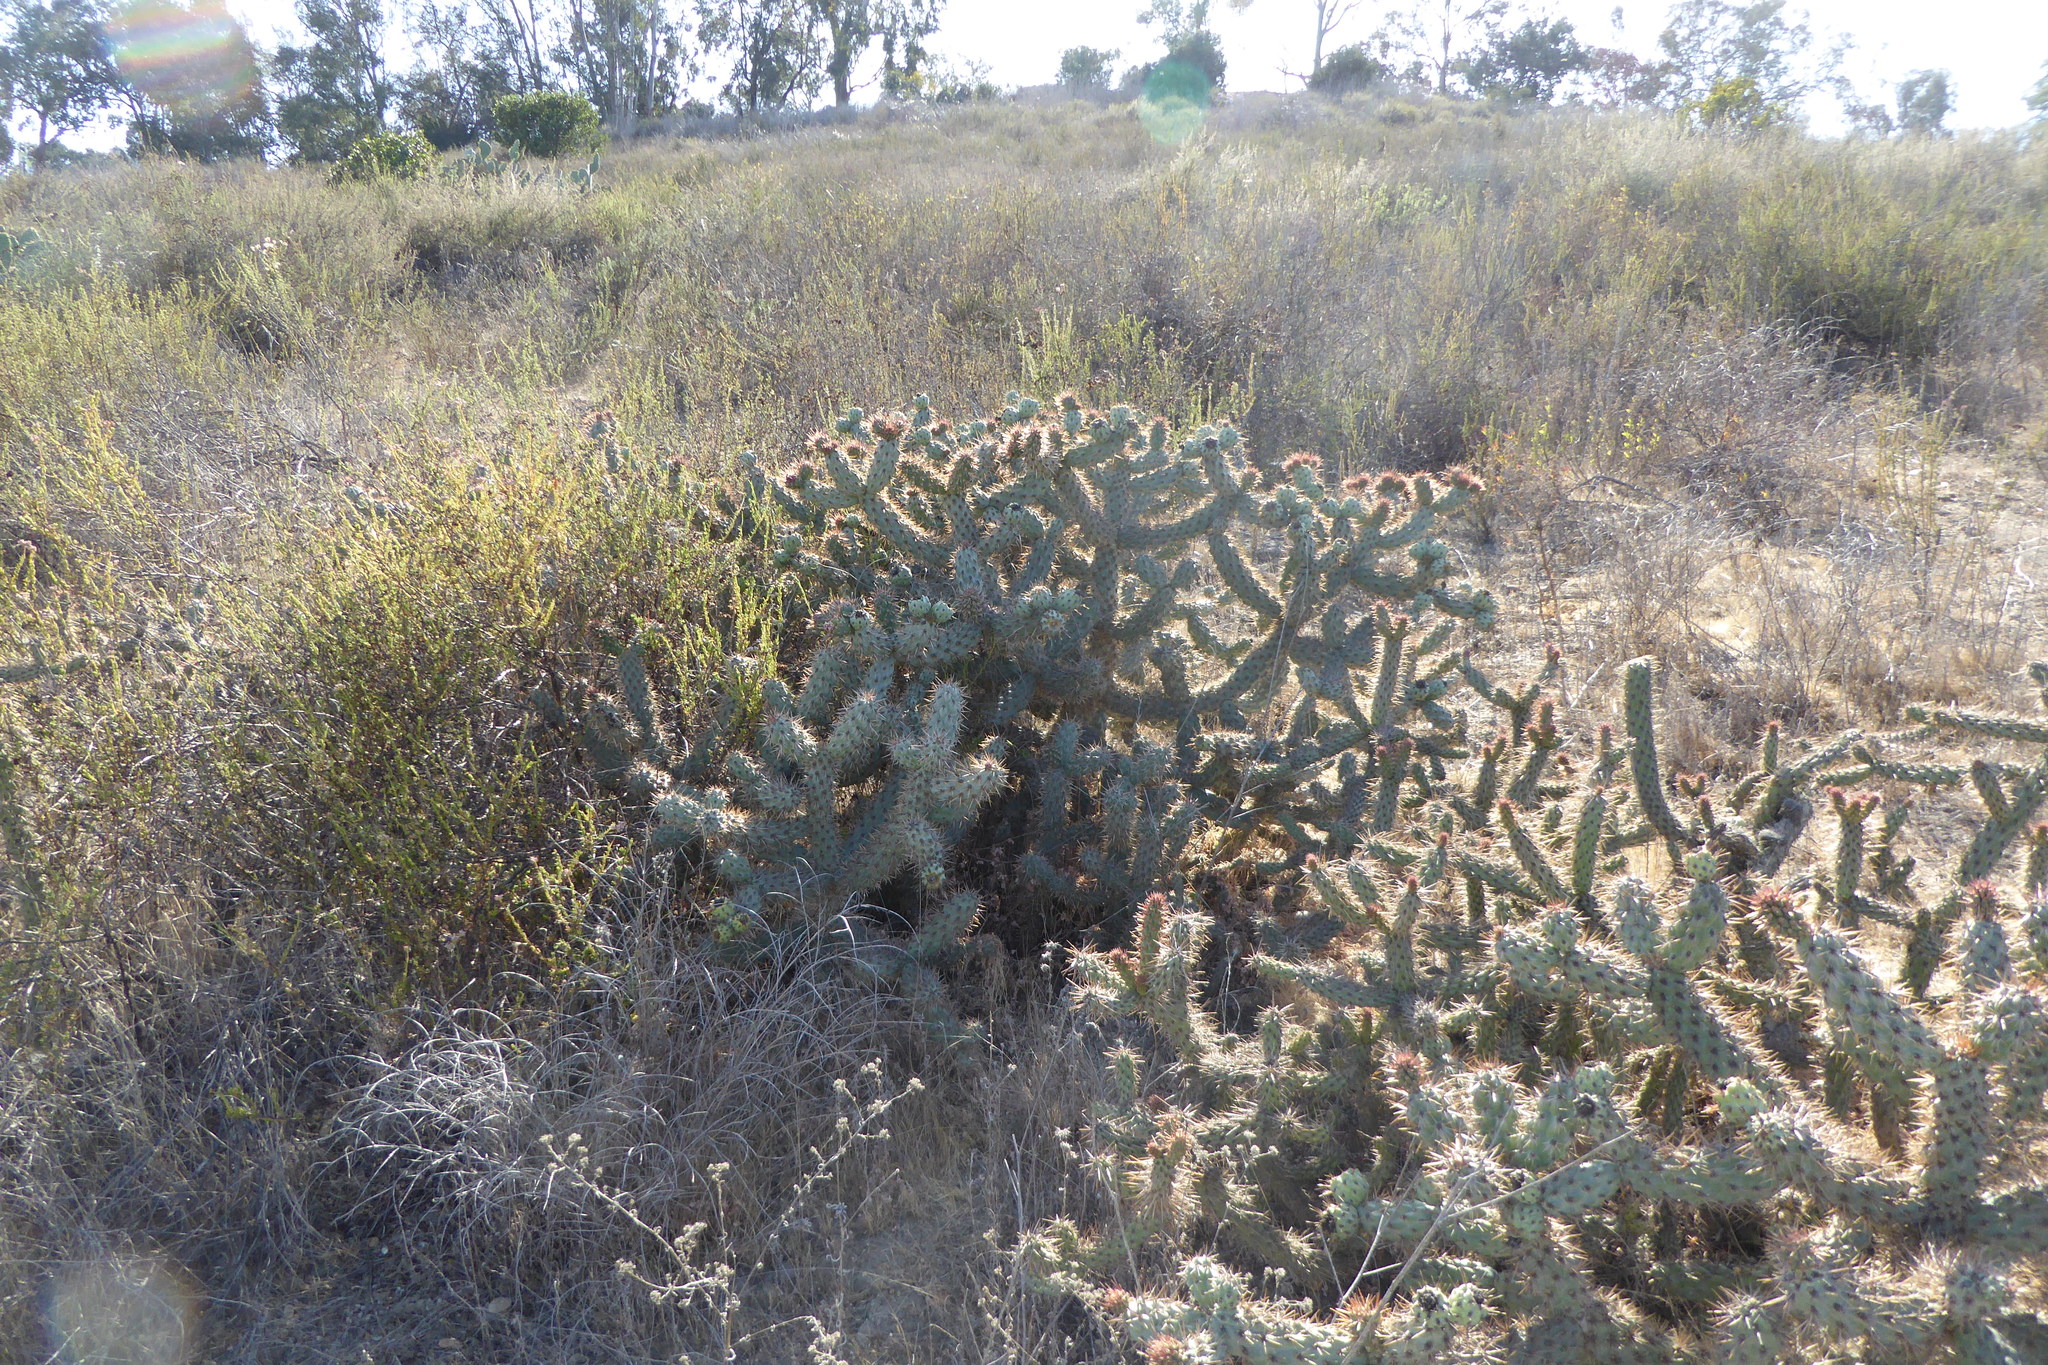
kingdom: Plantae
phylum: Tracheophyta
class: Magnoliopsida
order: Caryophyllales
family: Cactaceae
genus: Cylindropuntia
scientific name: Cylindropuntia prolifera
